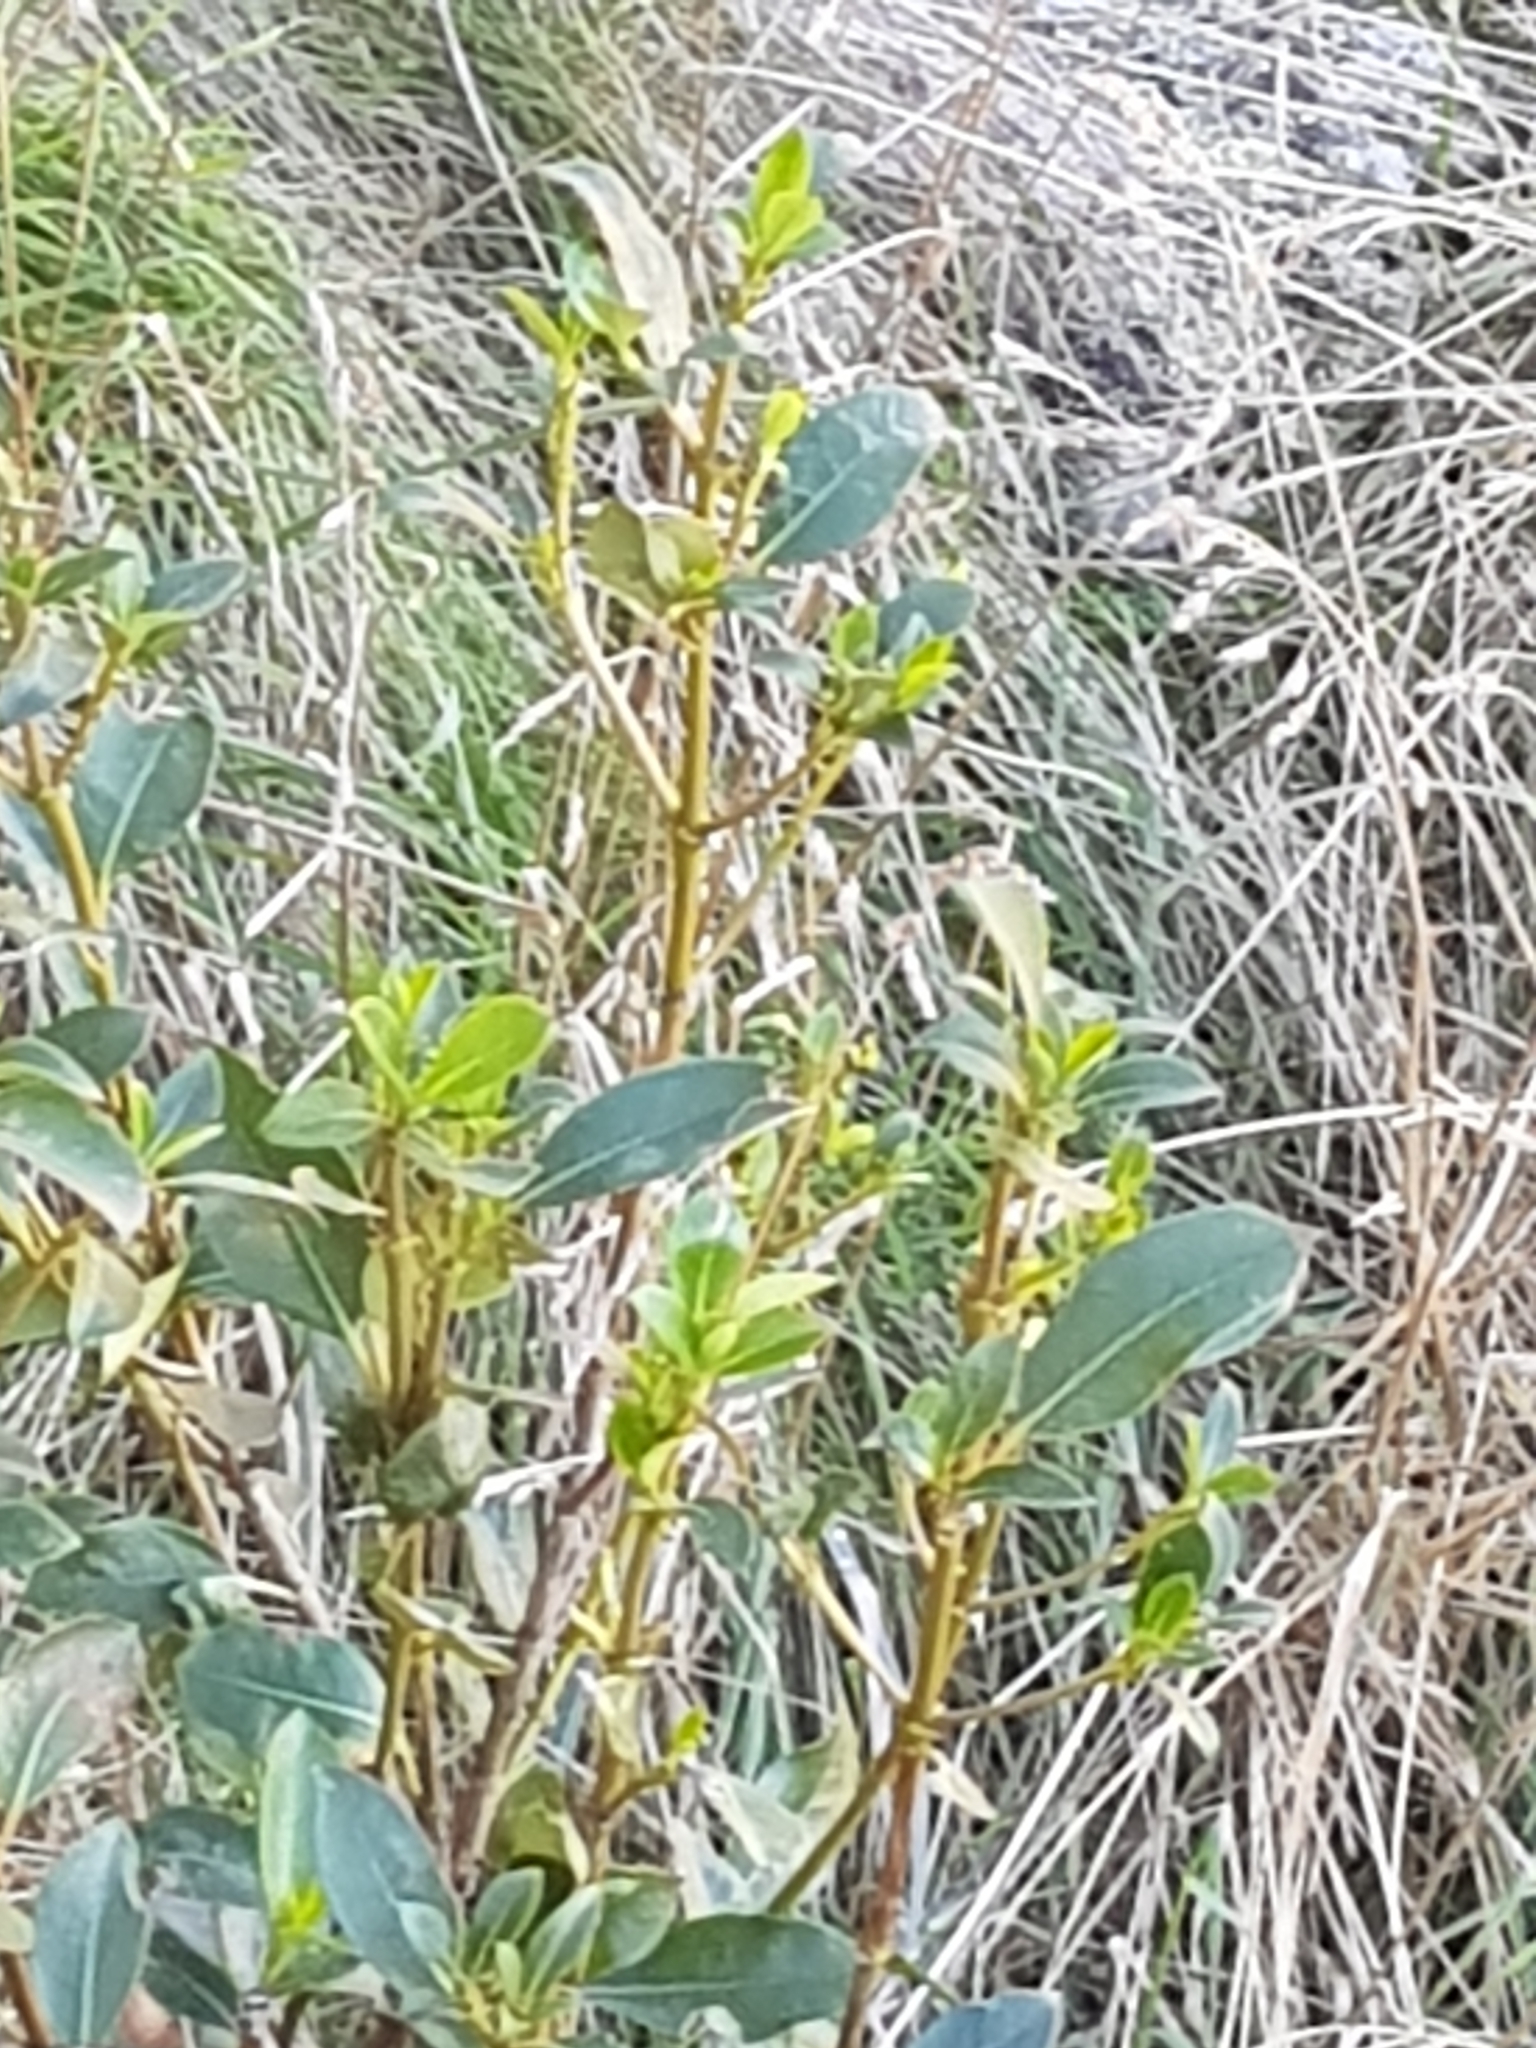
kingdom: Plantae
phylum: Tracheophyta
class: Magnoliopsida
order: Gentianales
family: Rubiaceae
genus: Coprosma
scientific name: Coprosma lucida
